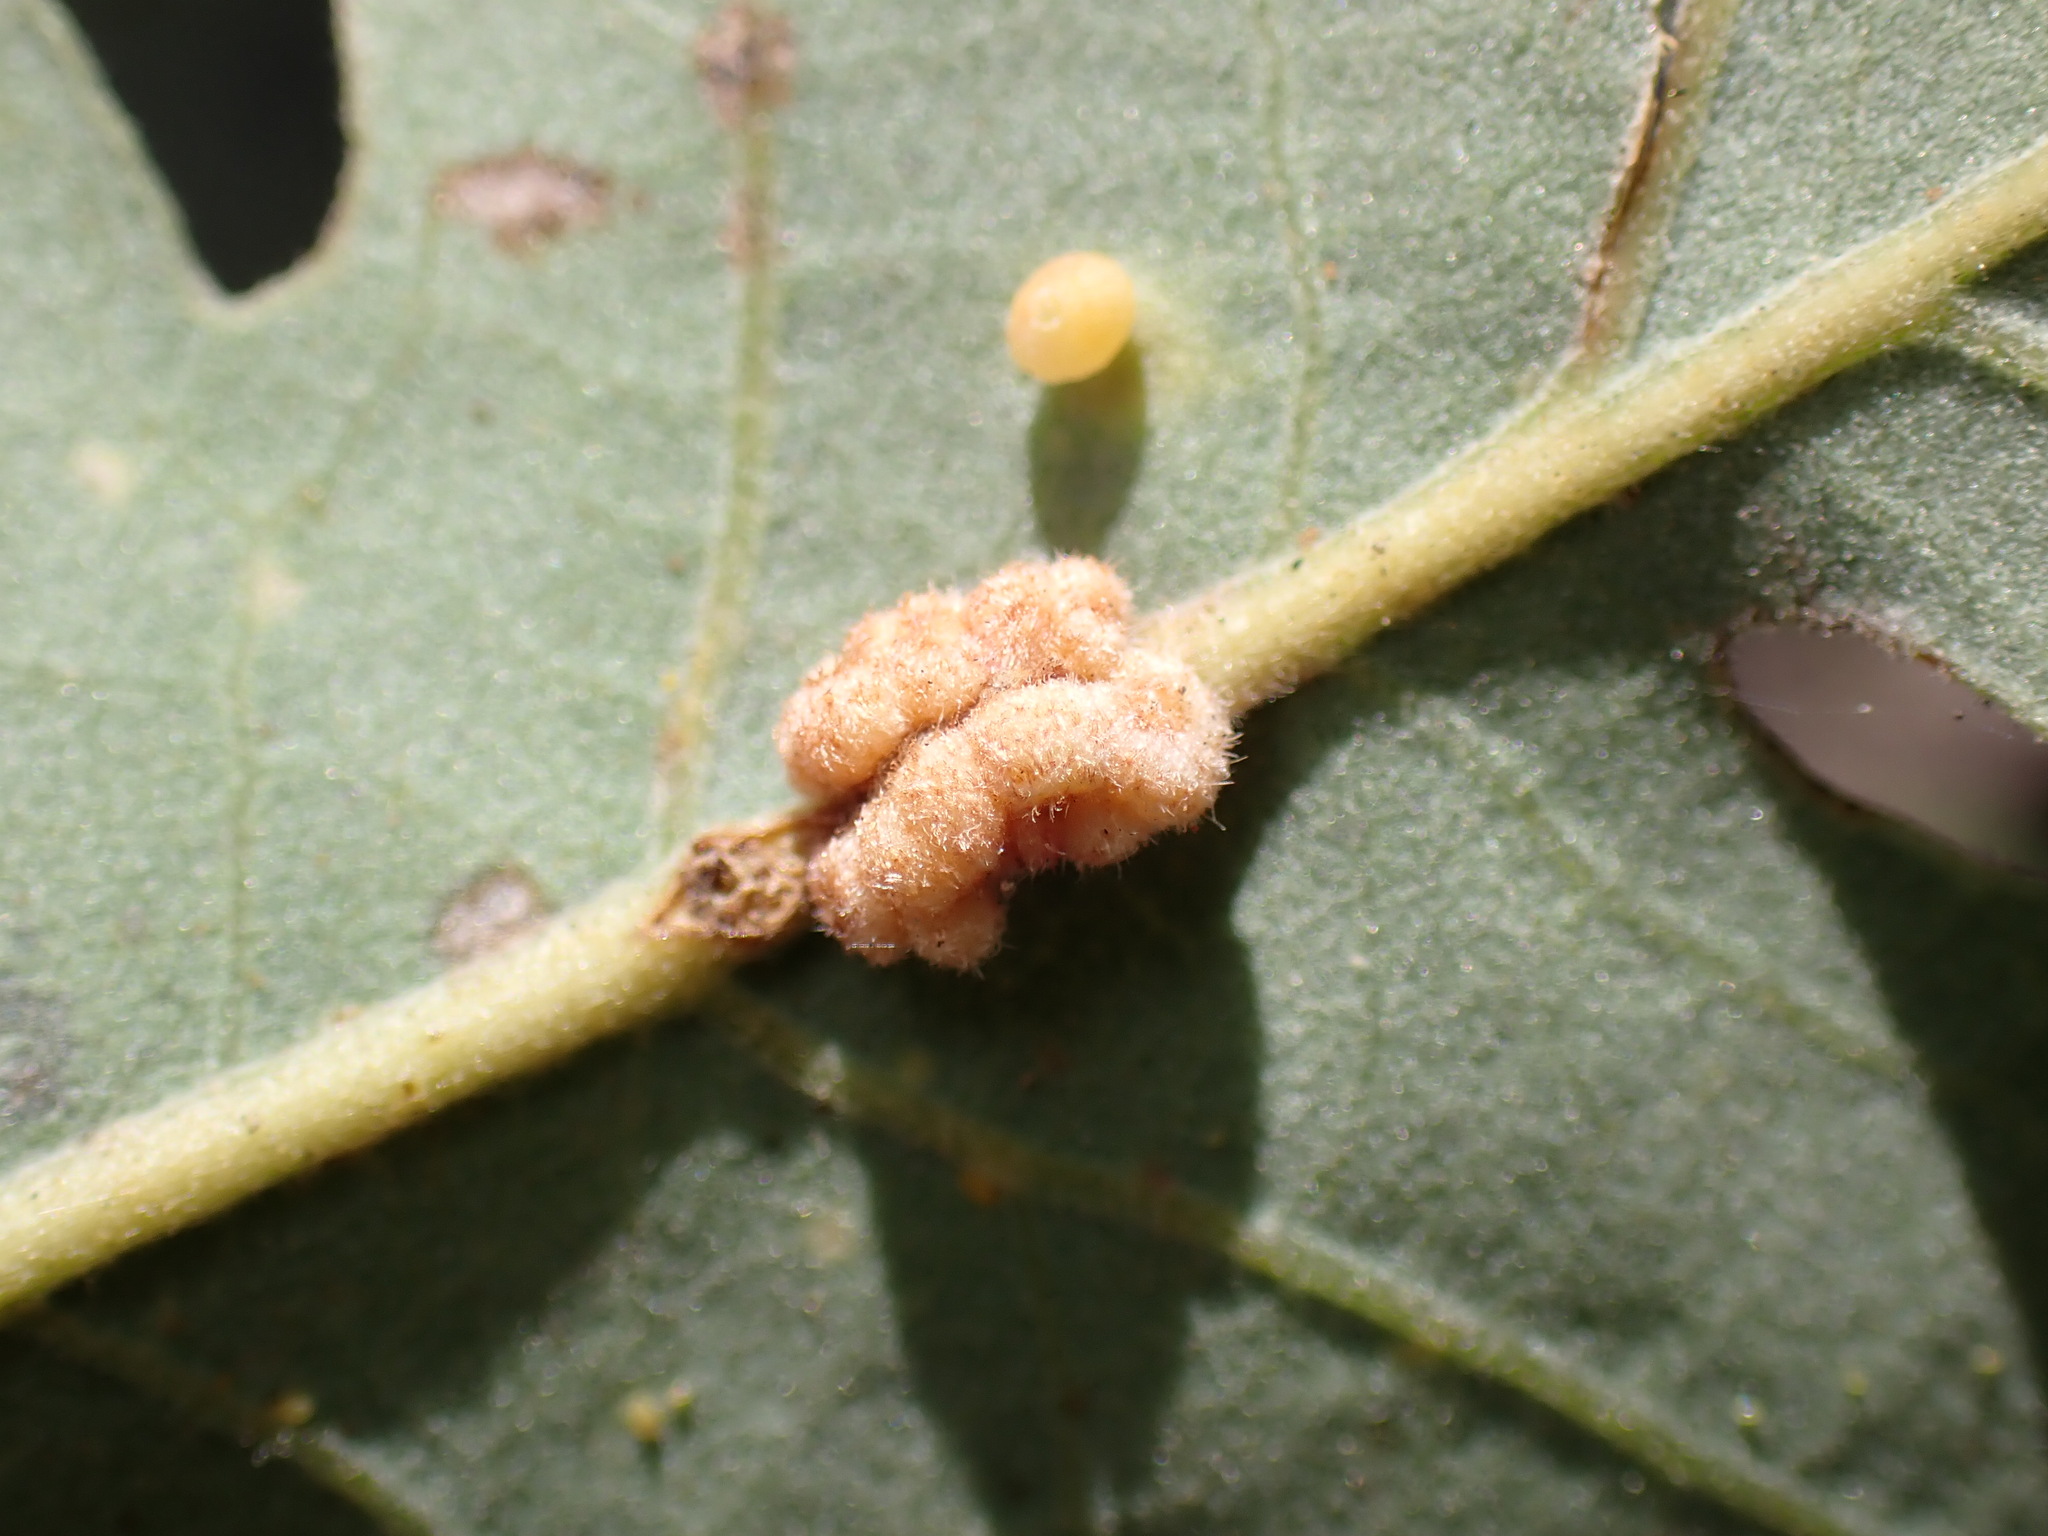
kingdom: Animalia
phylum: Arthropoda
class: Insecta
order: Hymenoptera
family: Cynipidae
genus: Andricus
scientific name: Andricus
